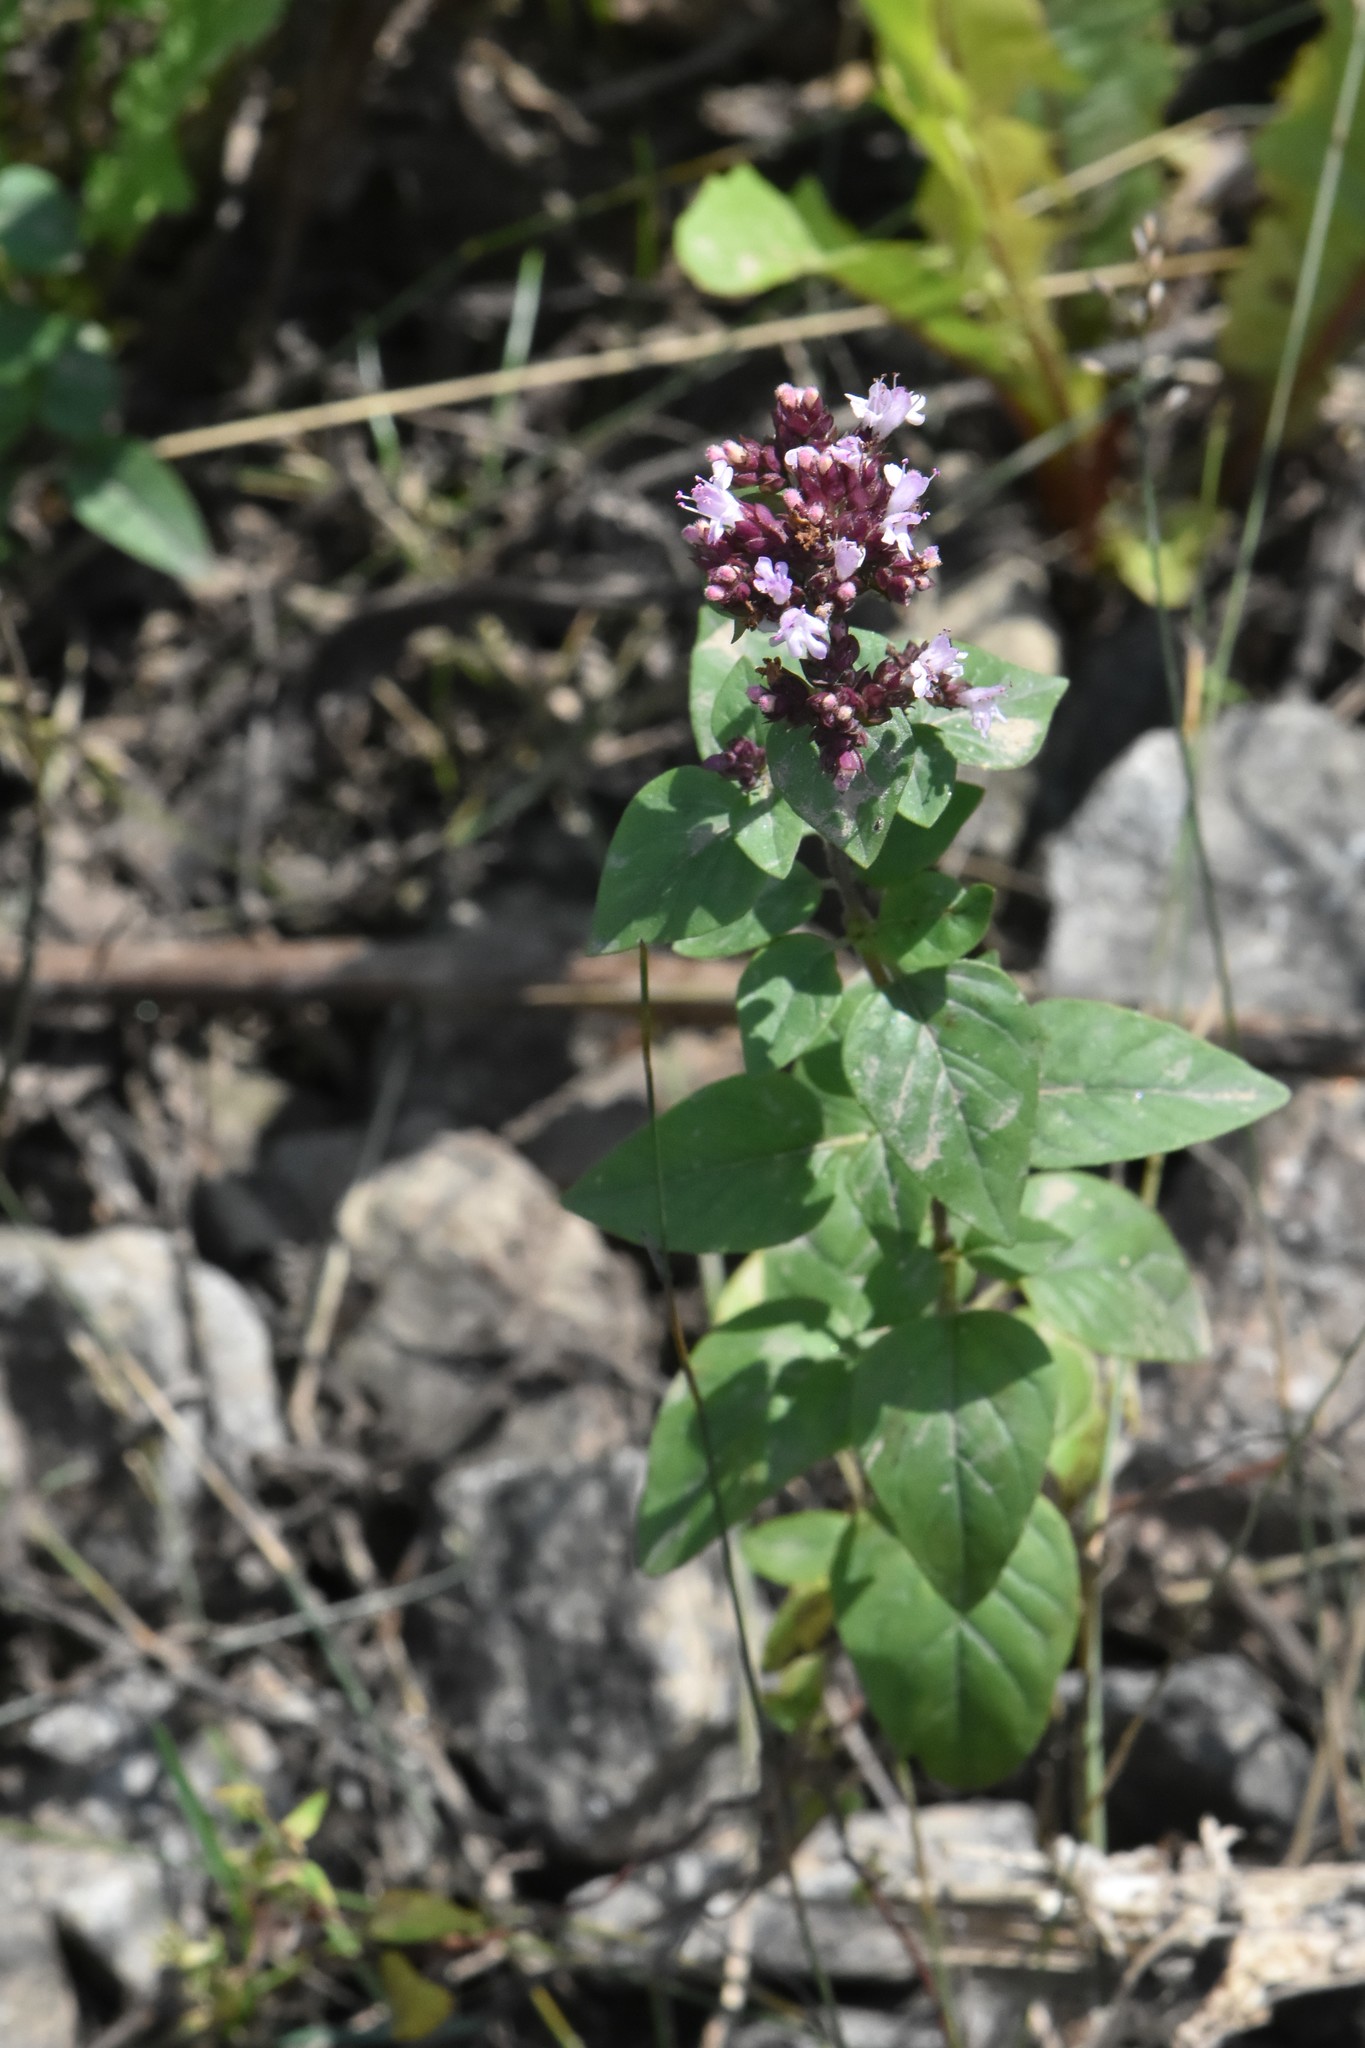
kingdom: Plantae
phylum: Tracheophyta
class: Magnoliopsida
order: Lamiales
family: Lamiaceae
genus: Origanum
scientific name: Origanum vulgare
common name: Wild marjoram
